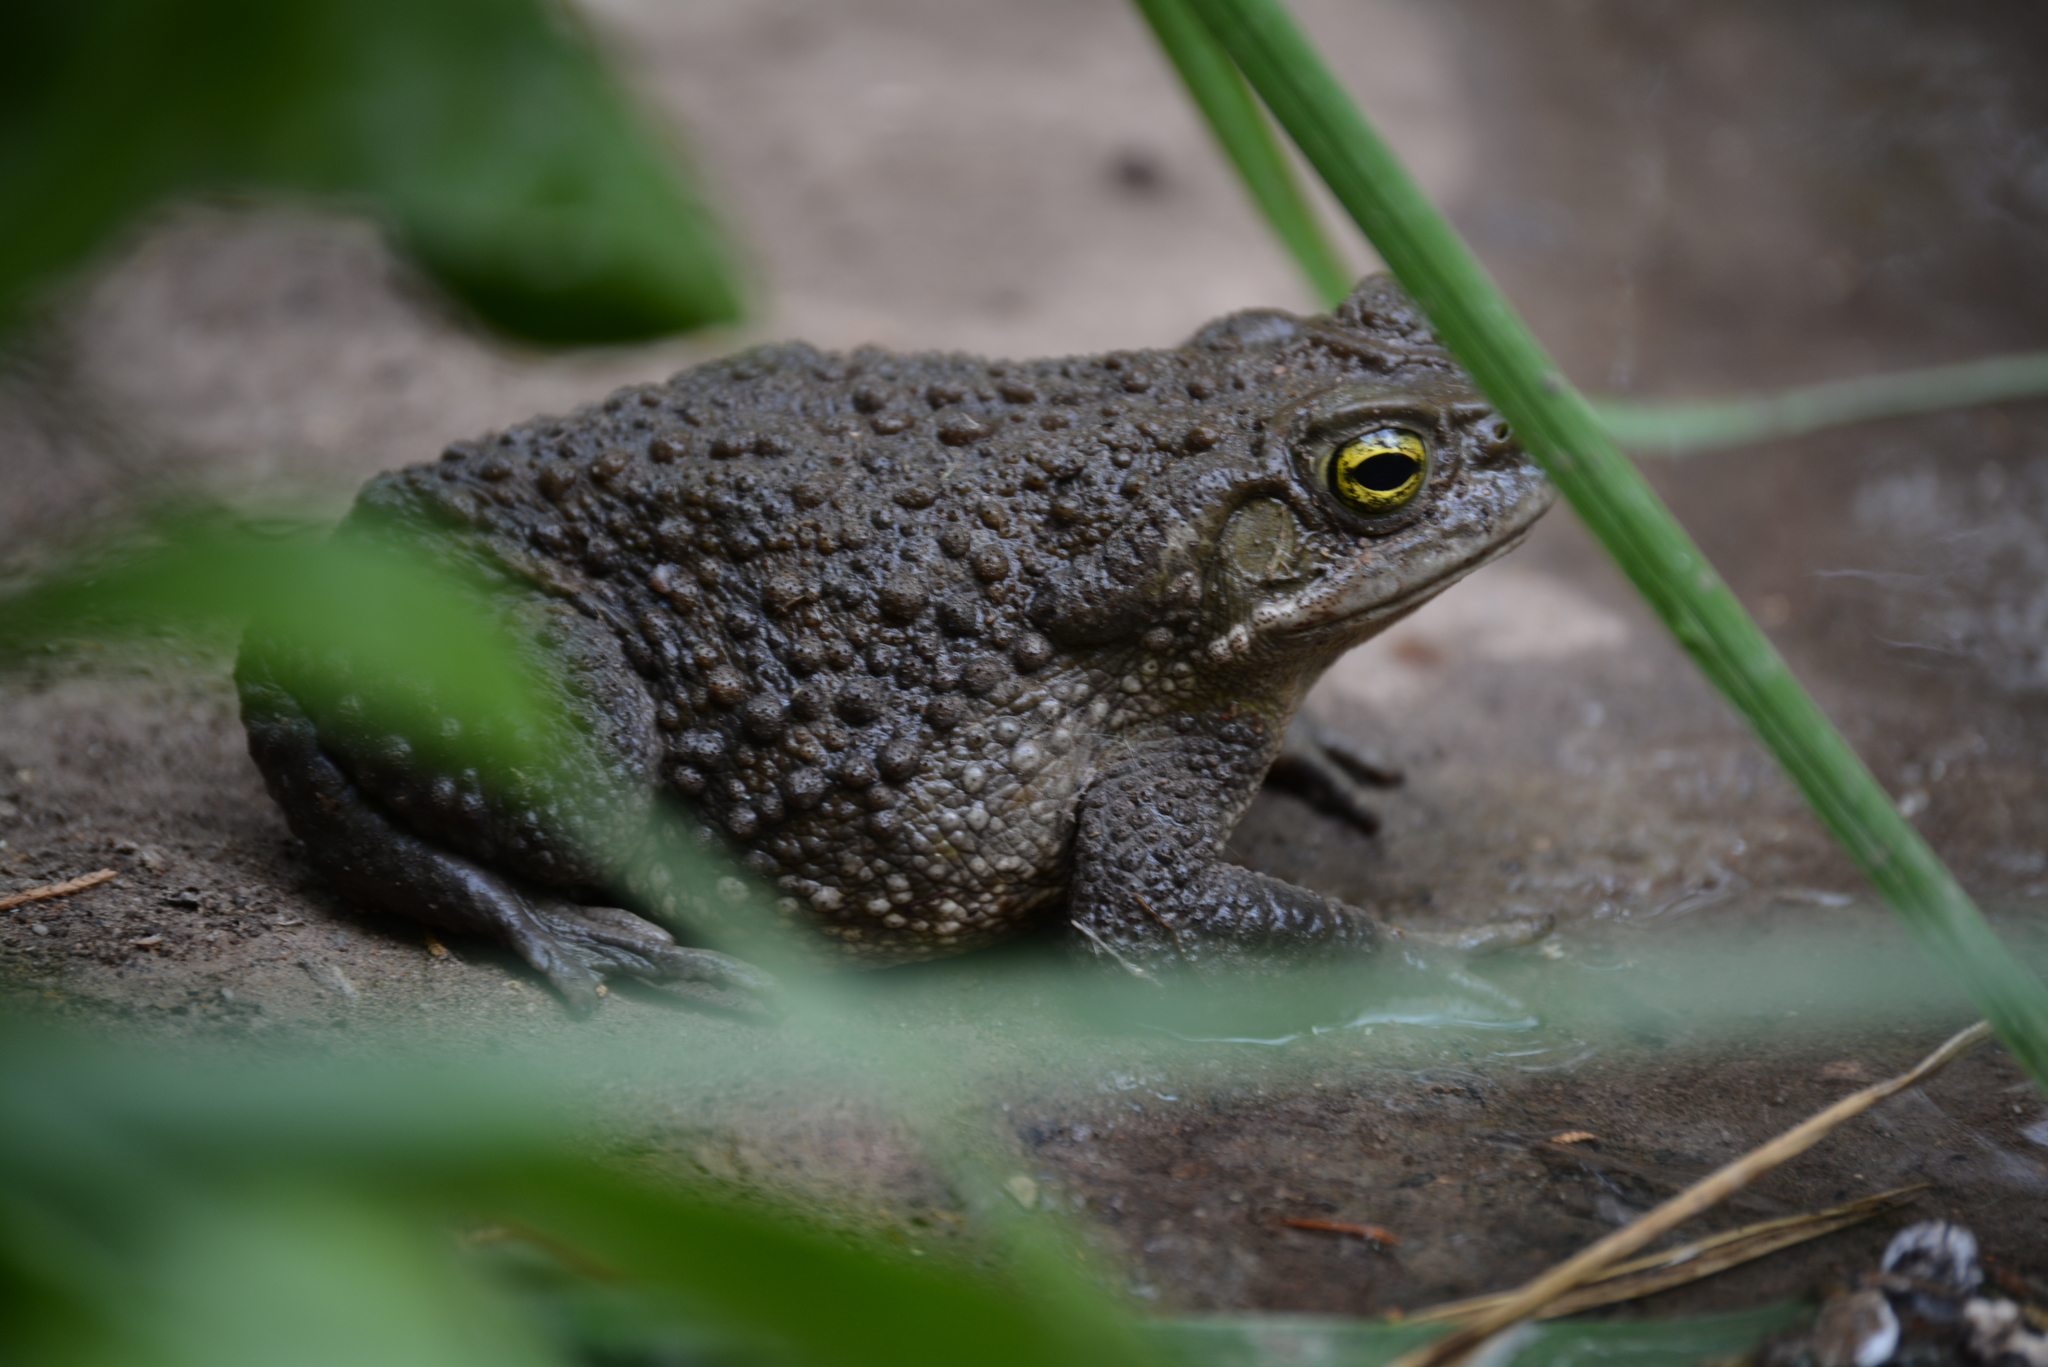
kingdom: Animalia
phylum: Chordata
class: Amphibia
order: Anura
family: Bufonidae
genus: Rhinella
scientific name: Rhinella spinulosa
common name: Warty toad
